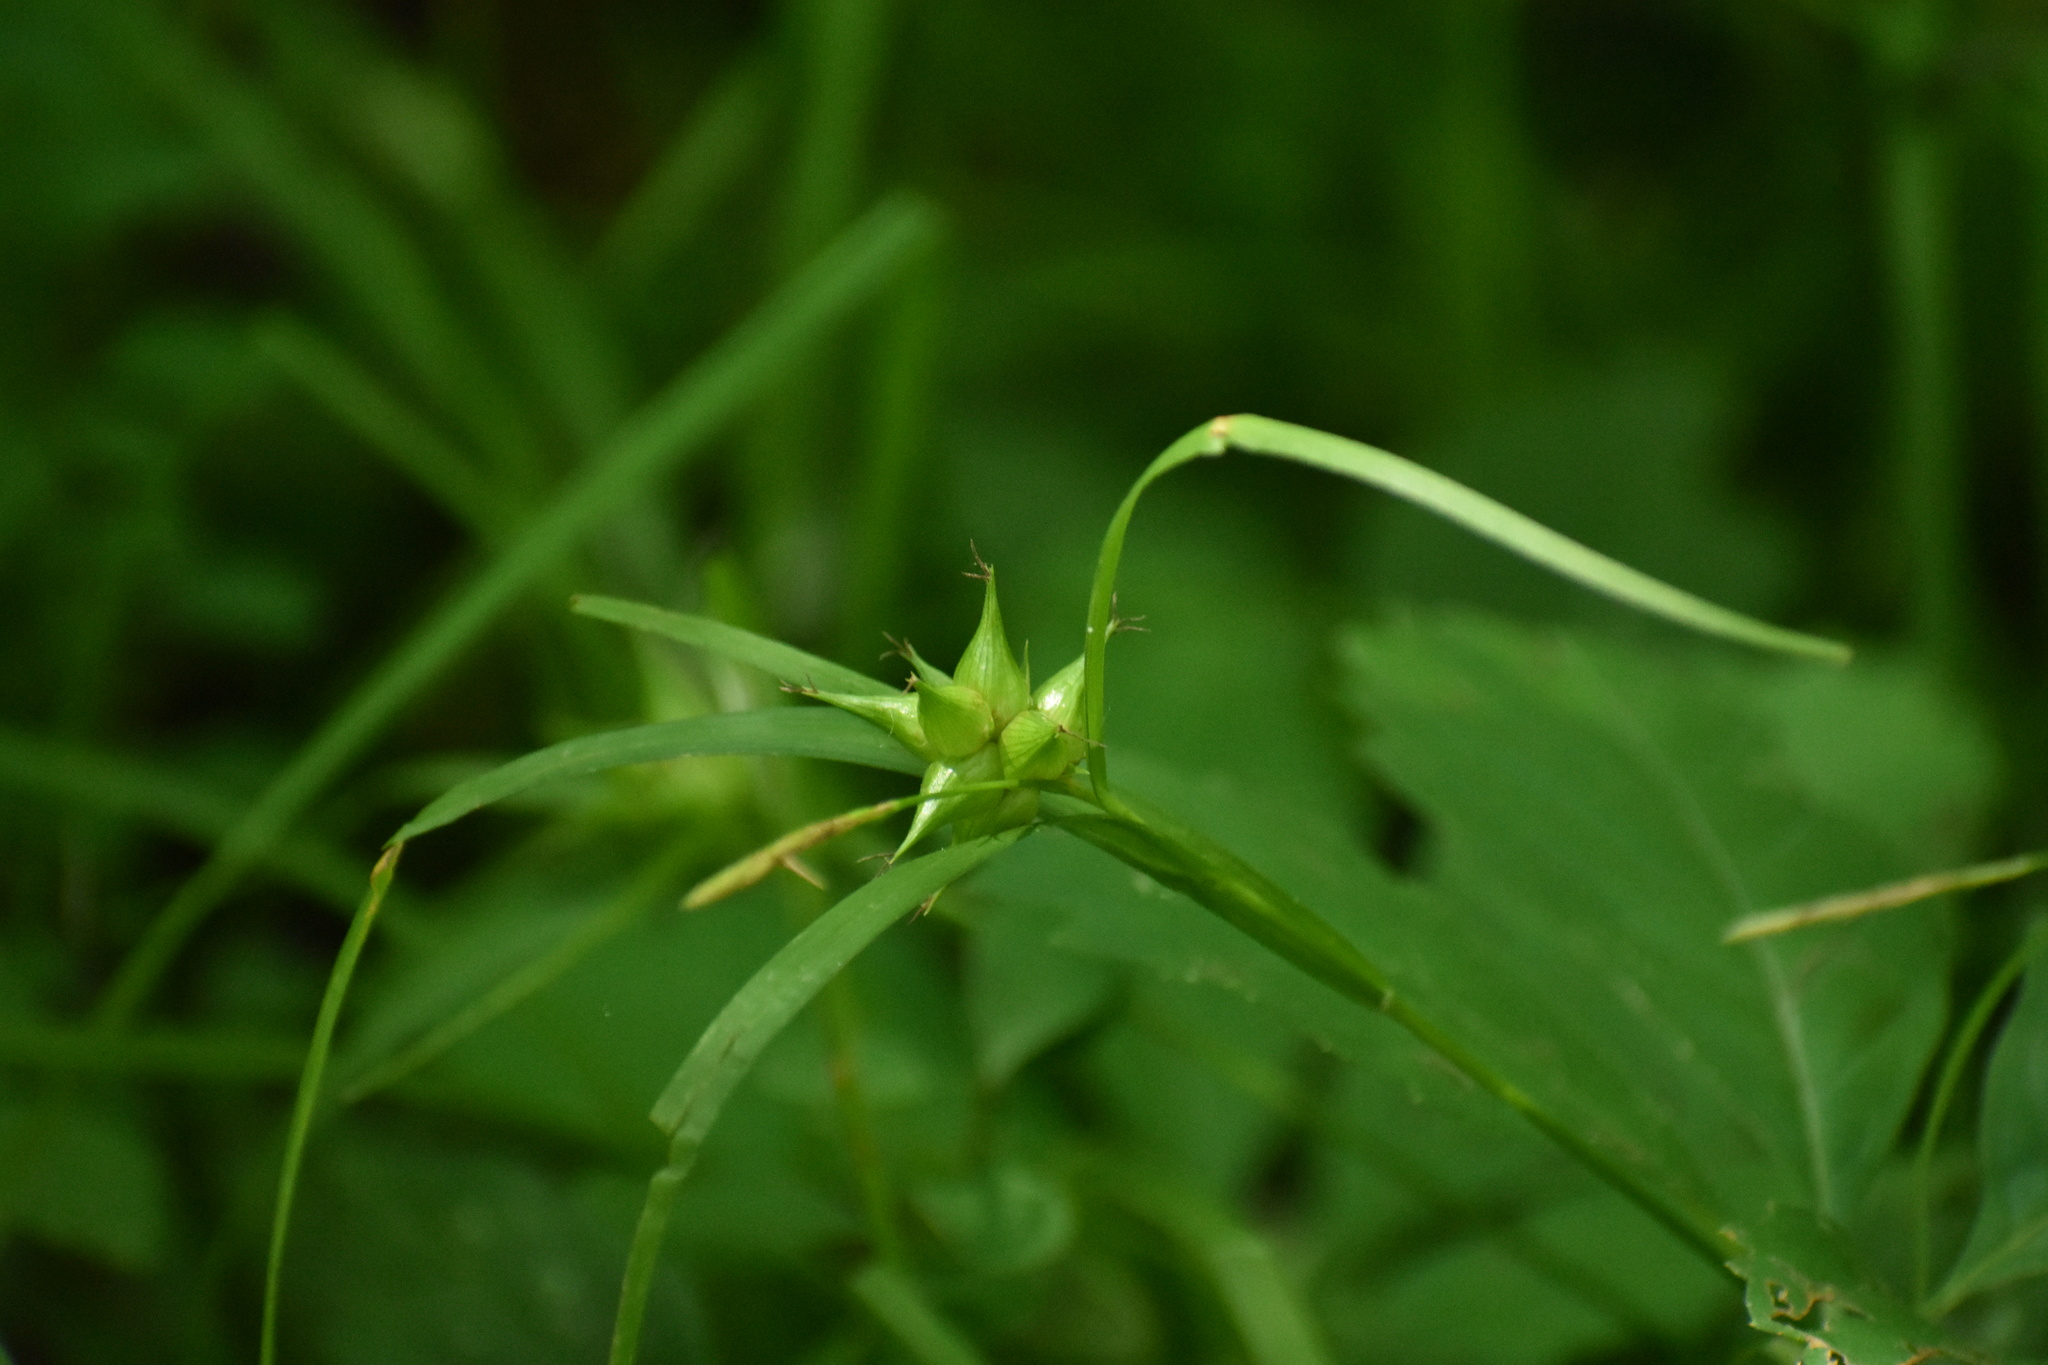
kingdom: Plantae
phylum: Tracheophyta
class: Liliopsida
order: Poales
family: Cyperaceae
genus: Carex
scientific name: Carex intumescens
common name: Greater bladder sedge
